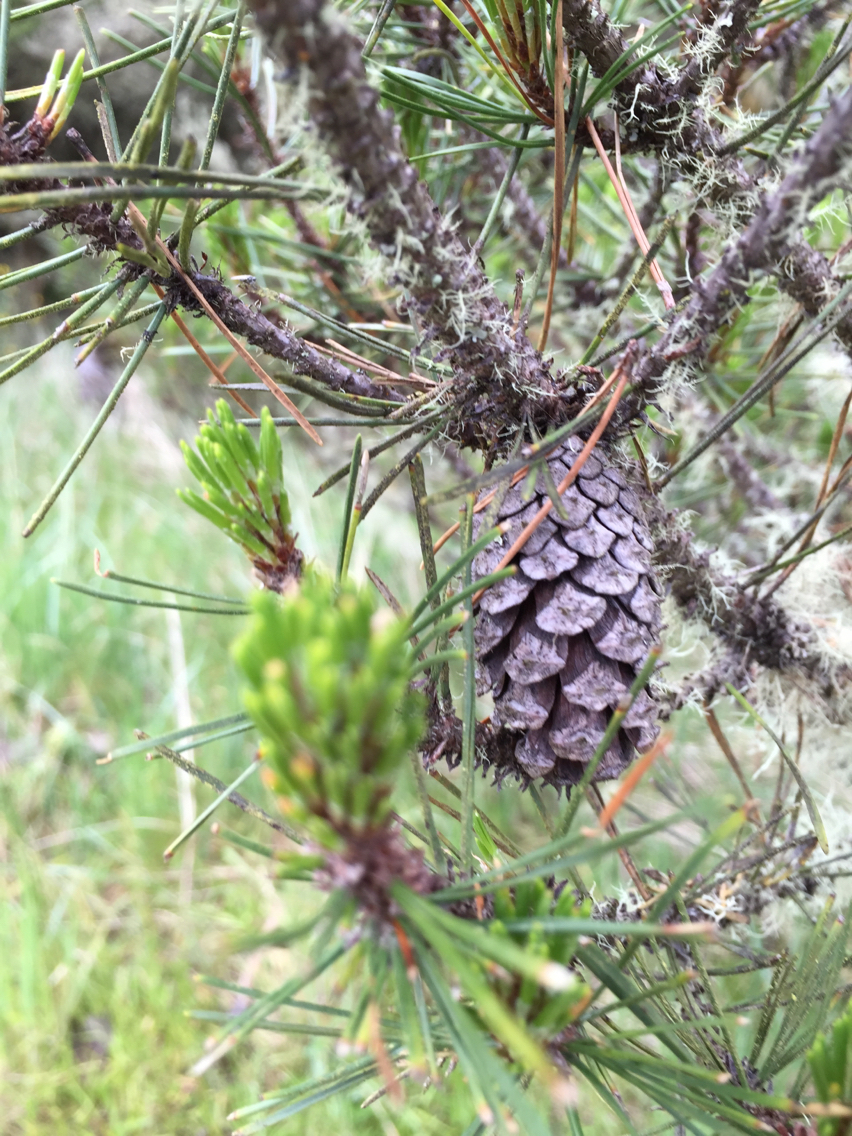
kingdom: Plantae
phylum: Tracheophyta
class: Pinopsida
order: Pinales
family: Pinaceae
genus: Pinus
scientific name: Pinus contorta
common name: Lodgepole pine
